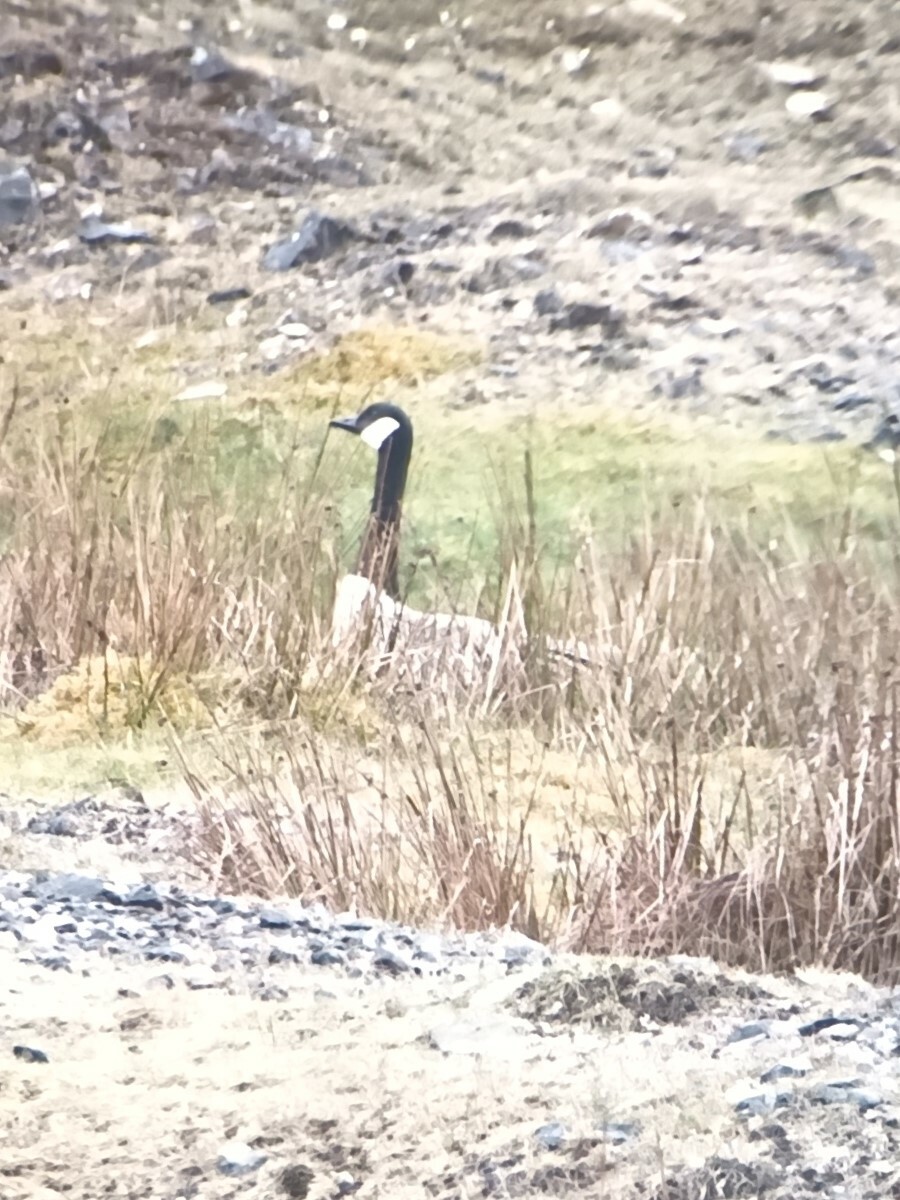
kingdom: Animalia
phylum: Chordata
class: Aves
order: Anseriformes
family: Anatidae
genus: Branta
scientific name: Branta canadensis
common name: Canada goose
